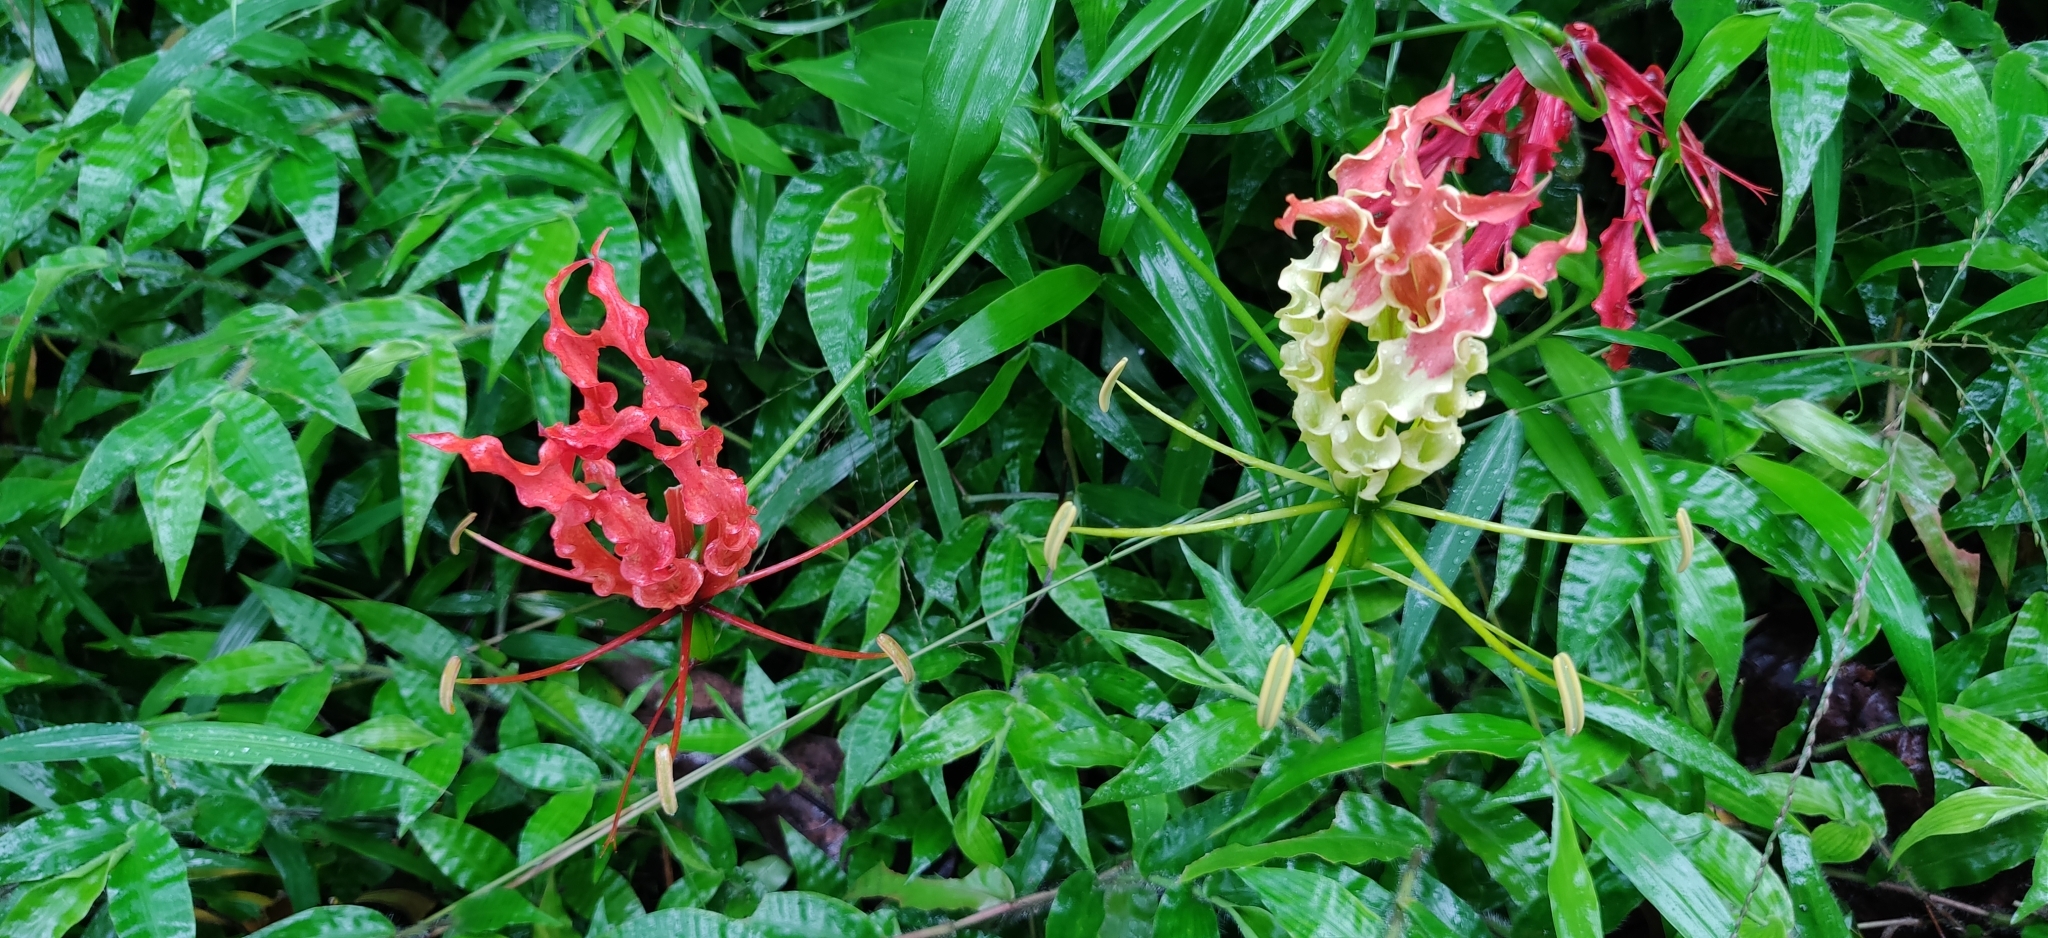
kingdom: Plantae
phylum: Tracheophyta
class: Liliopsida
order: Liliales
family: Colchicaceae
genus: Gloriosa
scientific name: Gloriosa superba
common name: Flame lily
